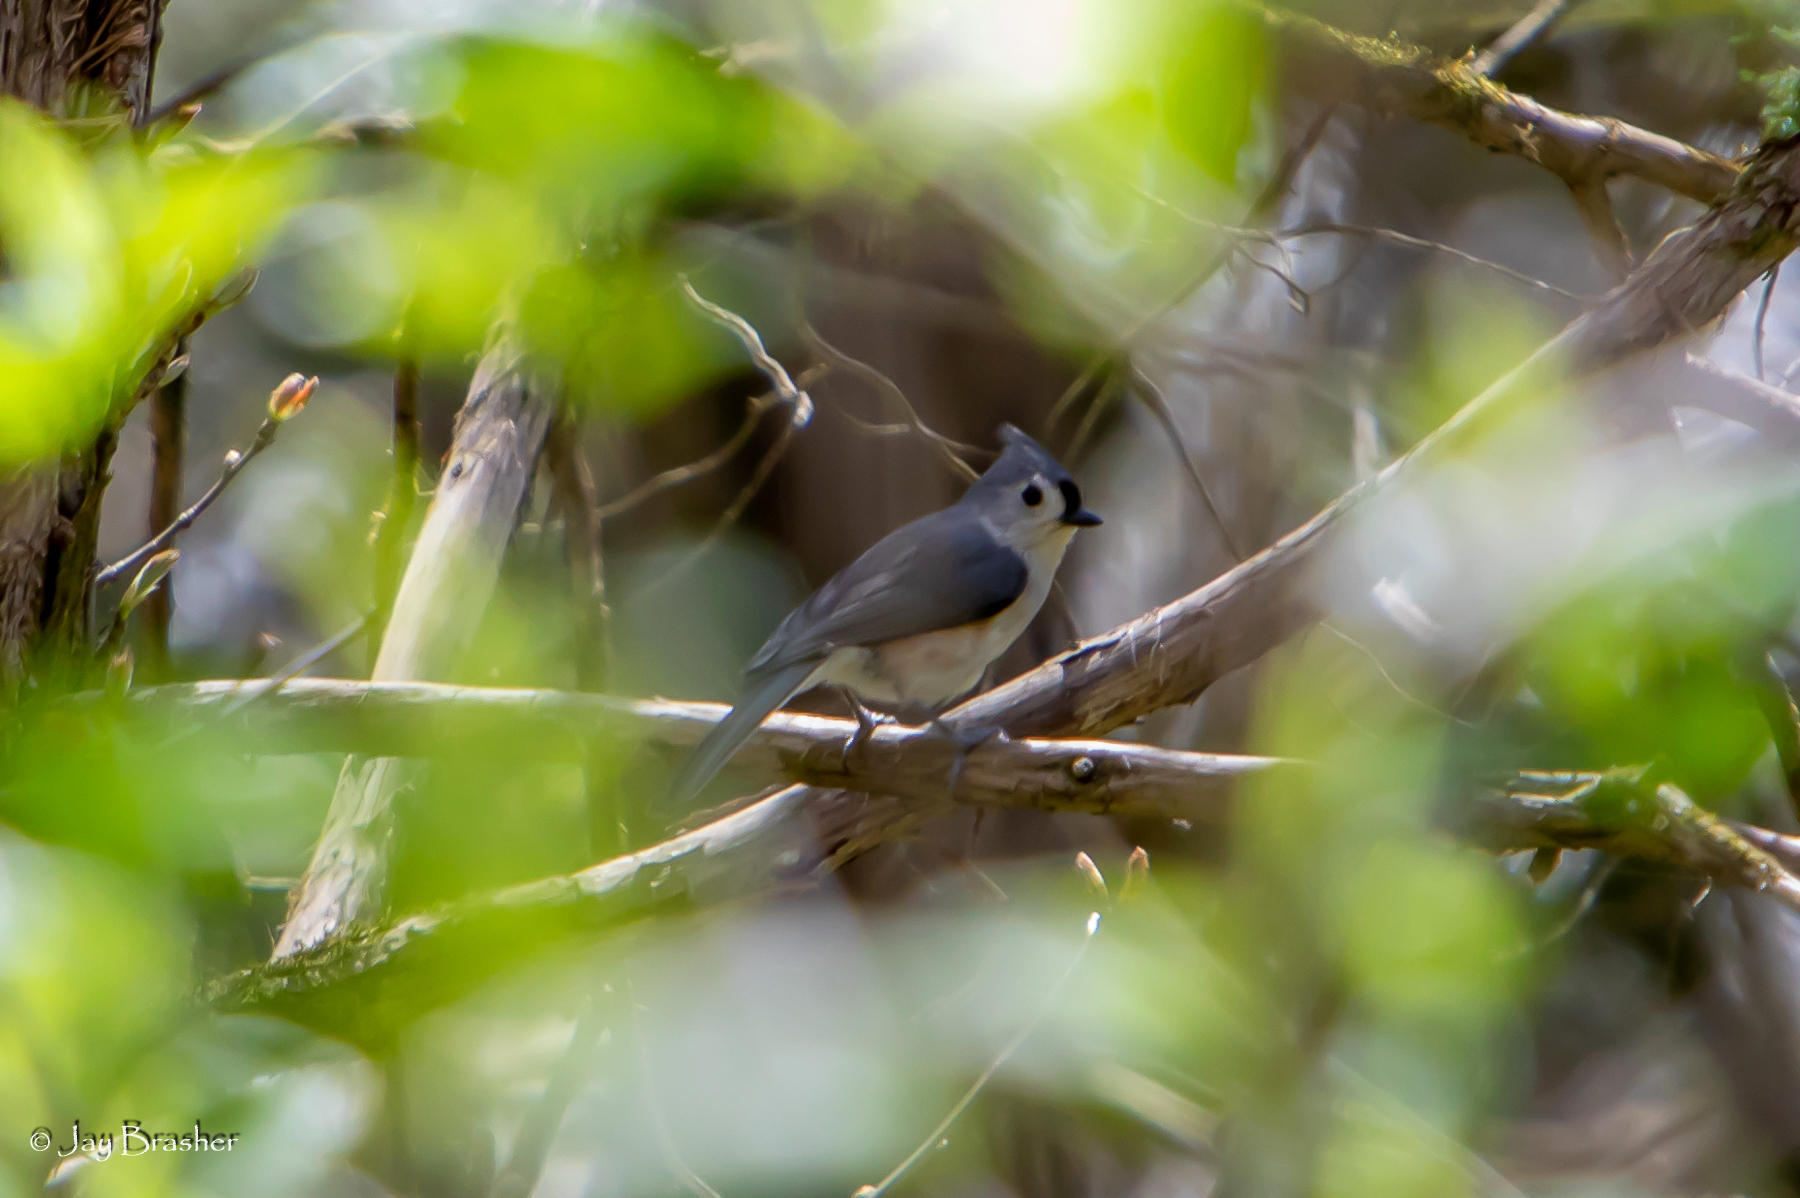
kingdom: Animalia
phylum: Chordata
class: Aves
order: Passeriformes
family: Paridae
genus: Baeolophus
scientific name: Baeolophus bicolor
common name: Tufted titmouse
